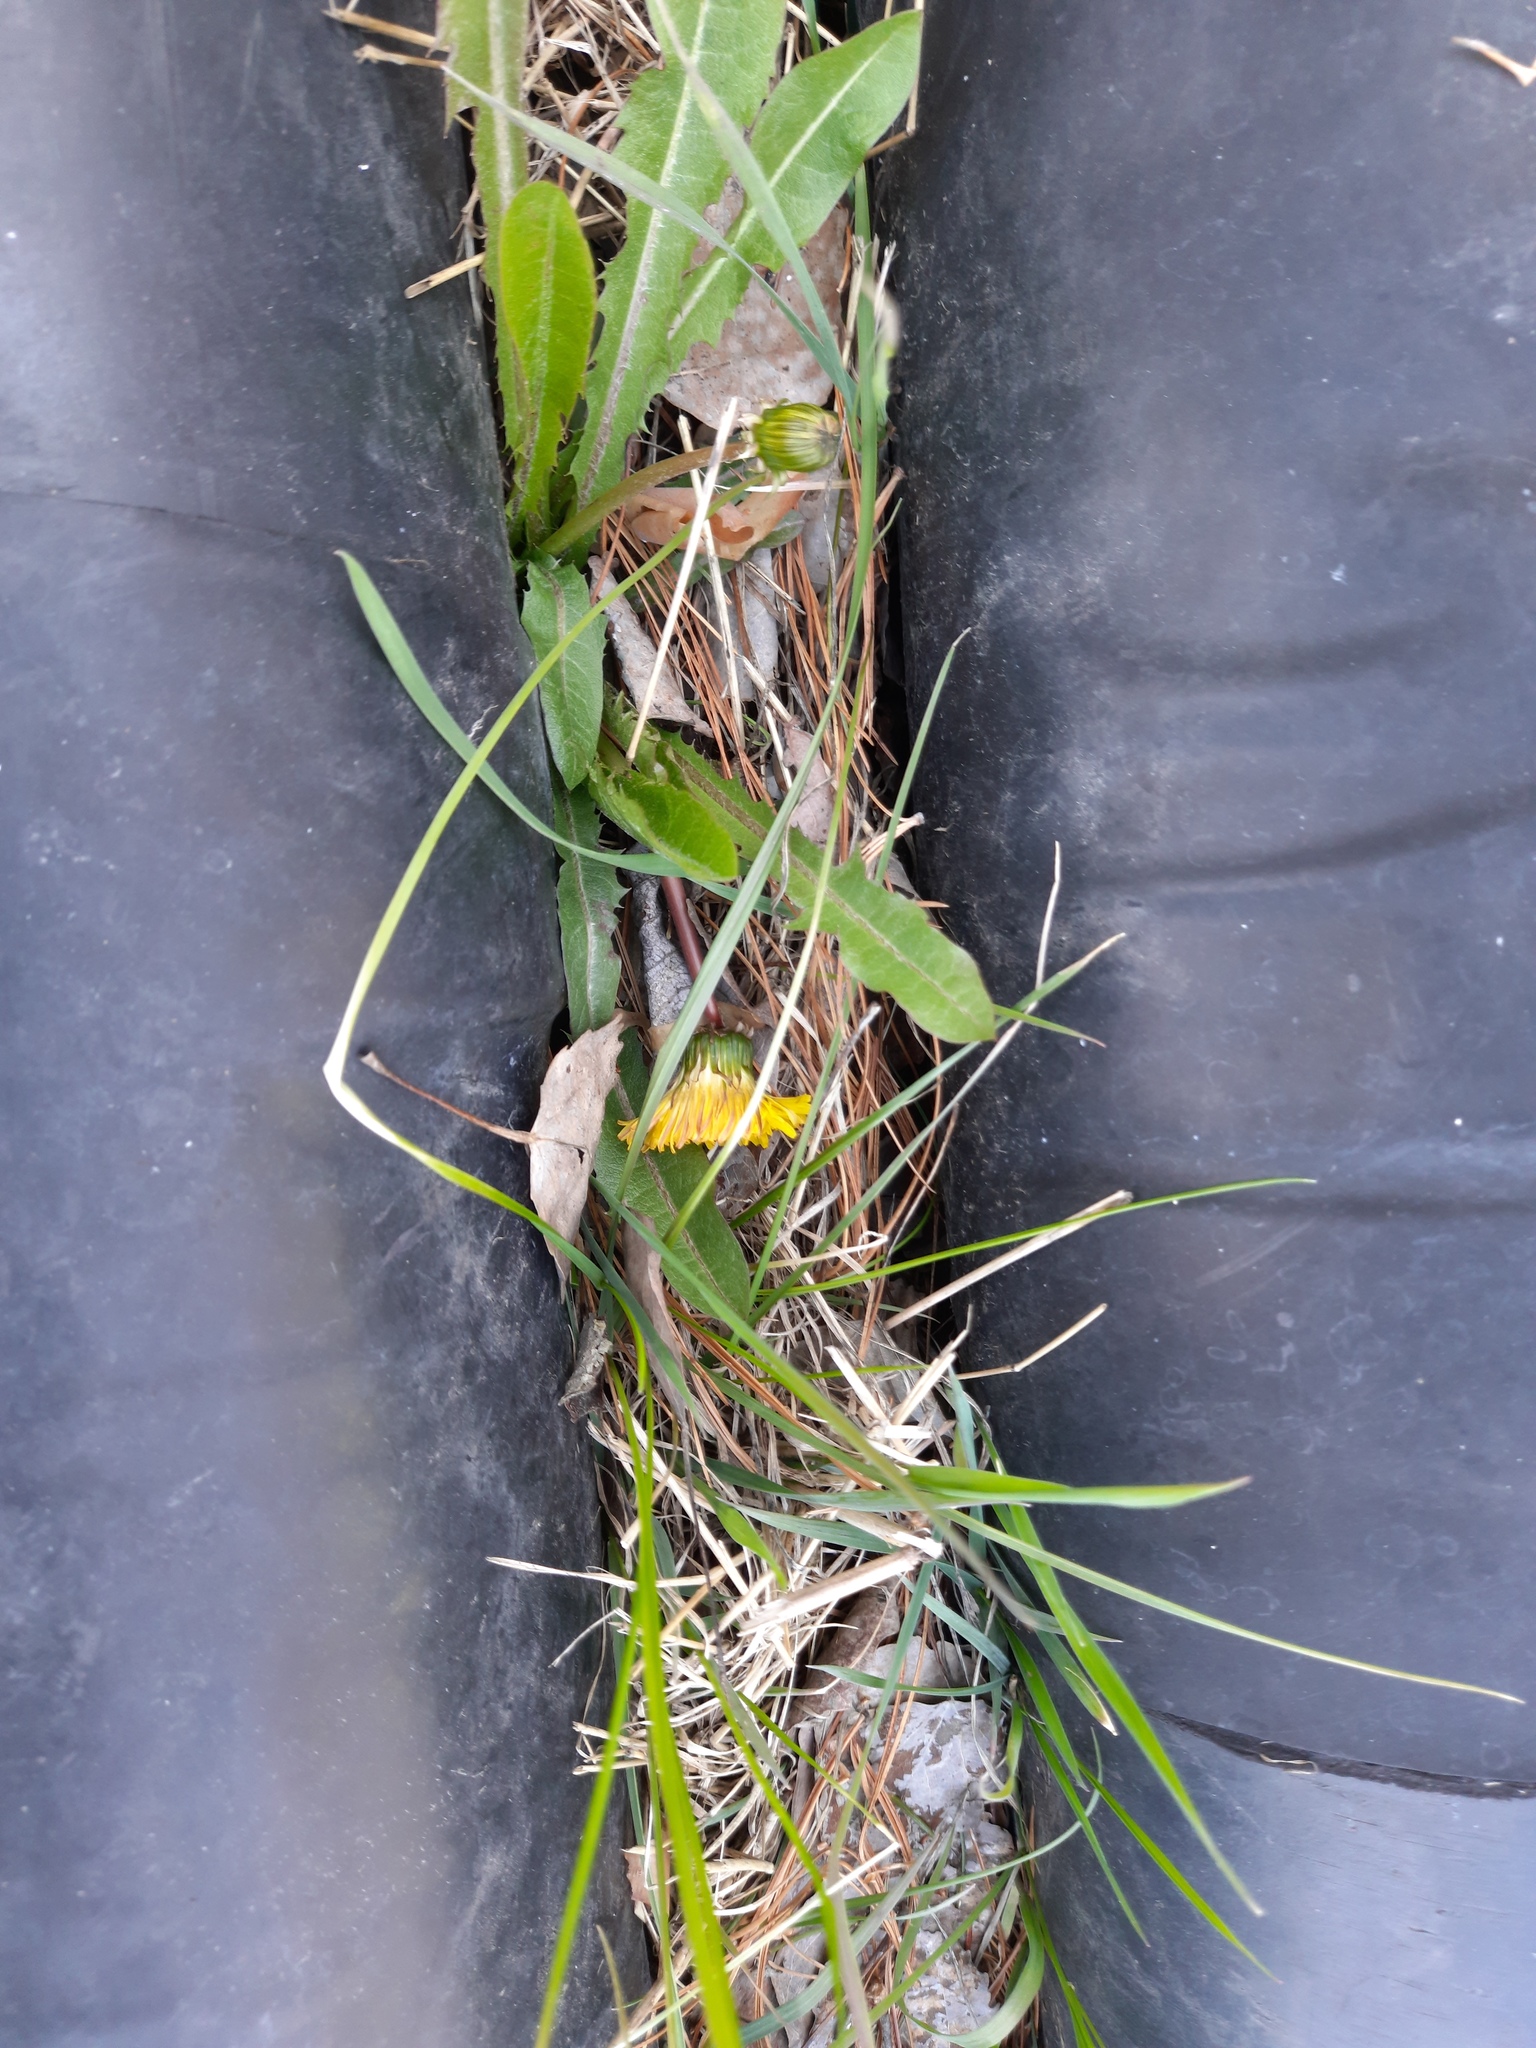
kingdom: Plantae
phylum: Tracheophyta
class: Magnoliopsida
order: Asterales
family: Asteraceae
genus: Taraxacum
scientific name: Taraxacum officinale
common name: Common dandelion
